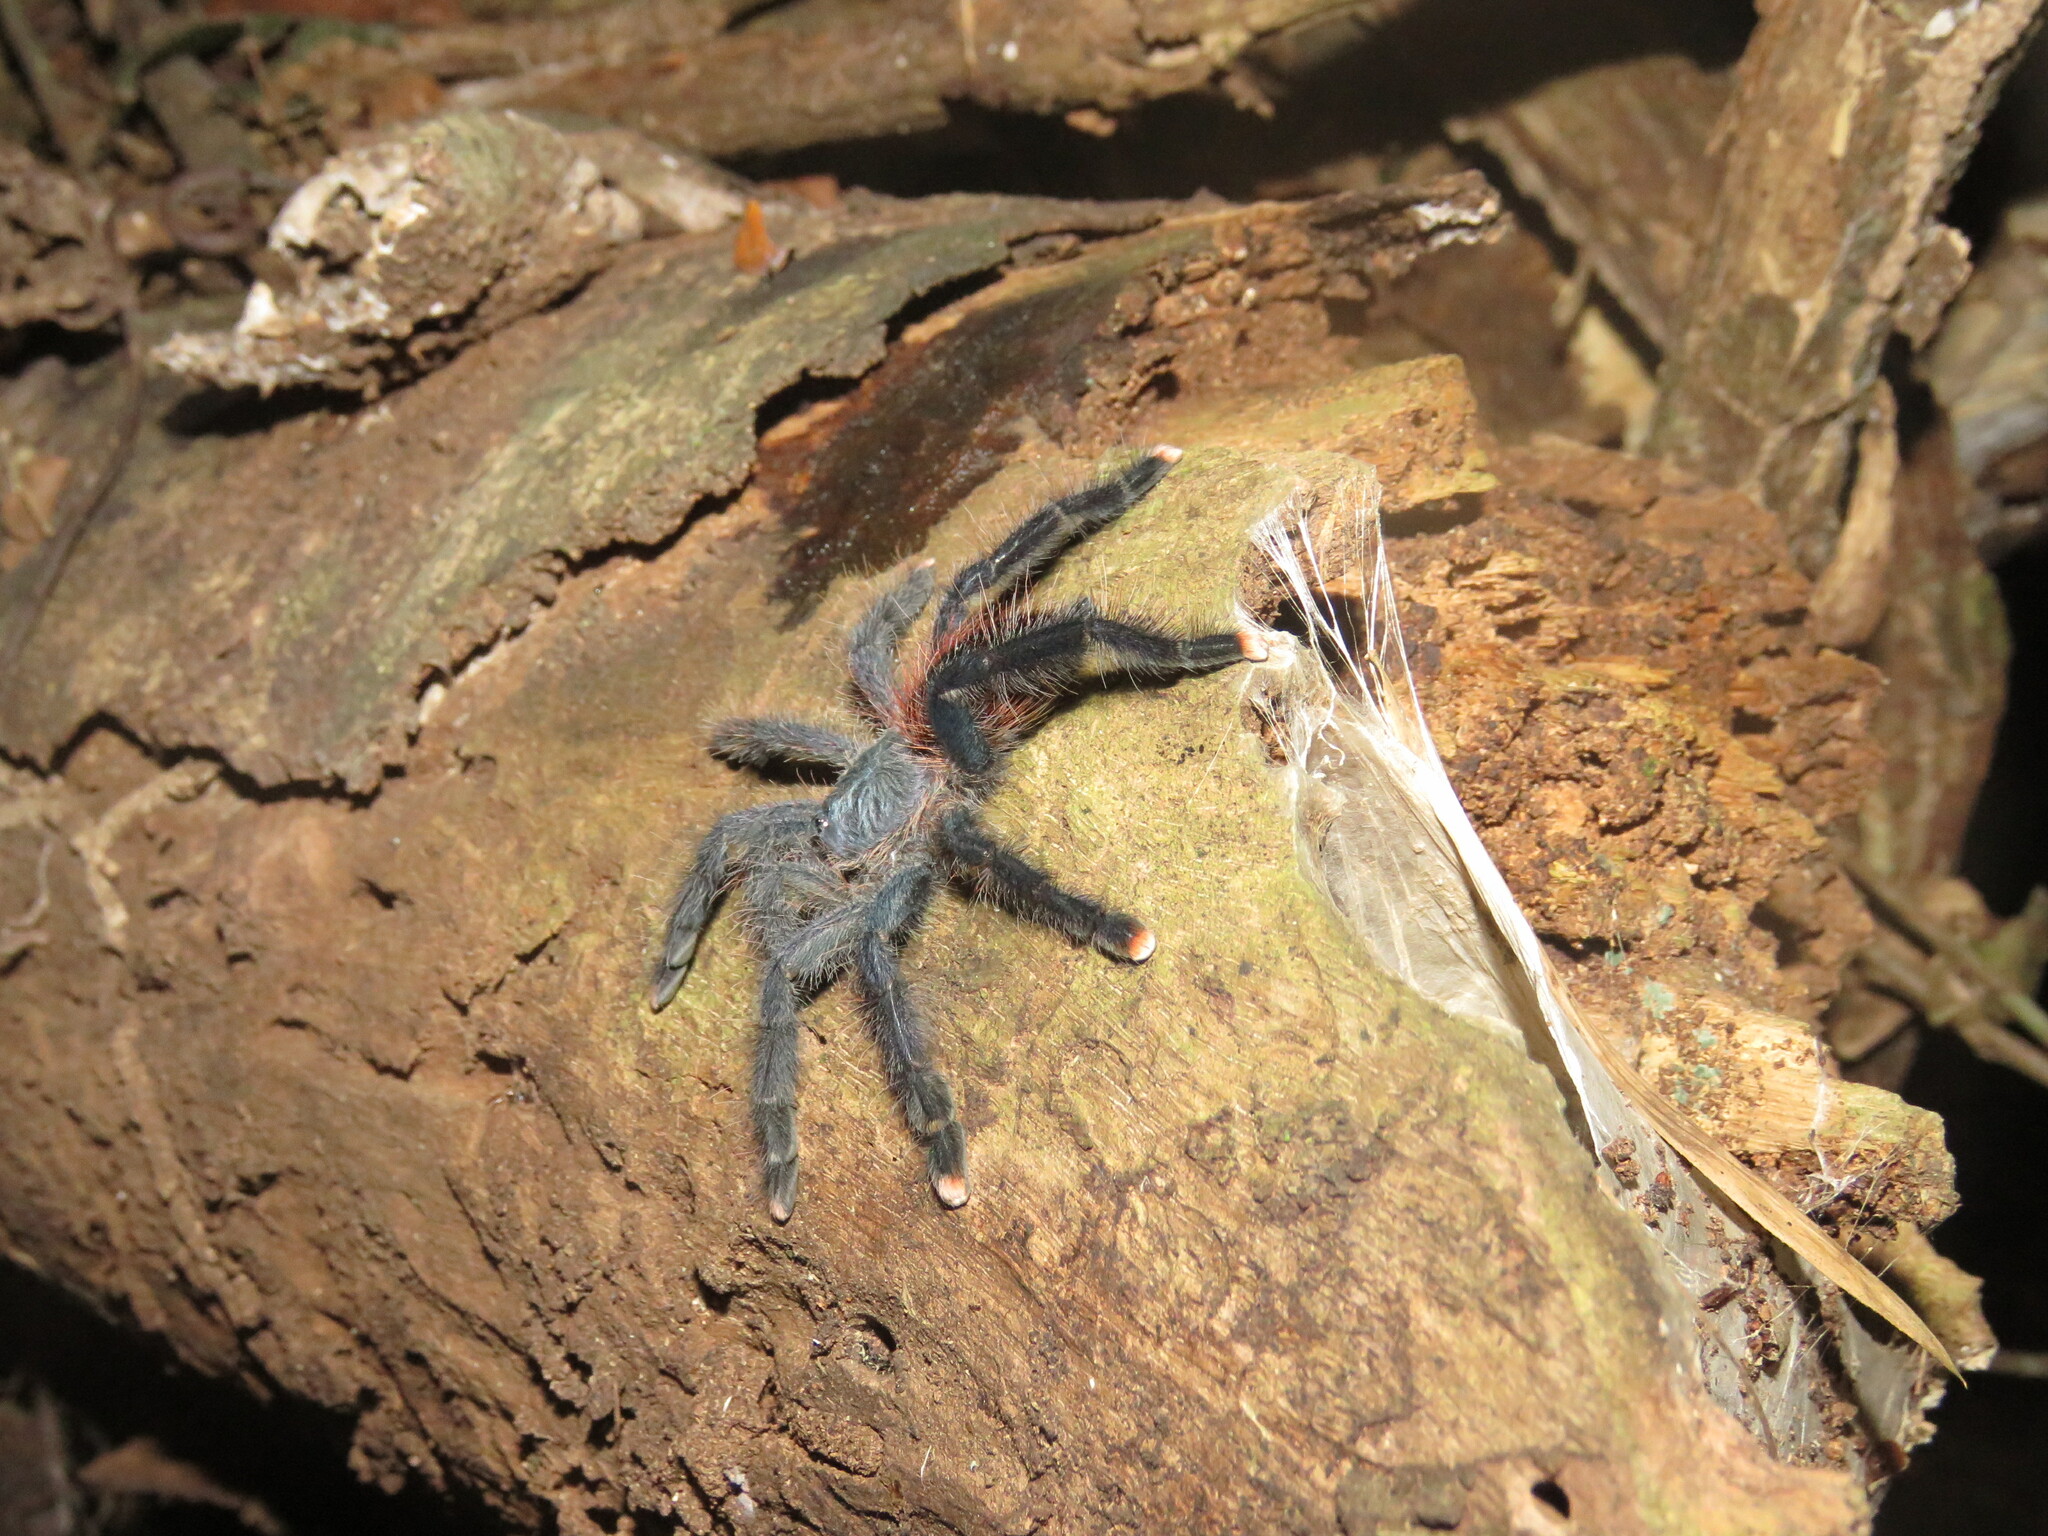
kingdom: Animalia
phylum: Arthropoda
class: Arachnida
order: Araneae
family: Theraphosidae
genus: Avicularia
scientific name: Avicularia avicularia
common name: Tarantula spiders
